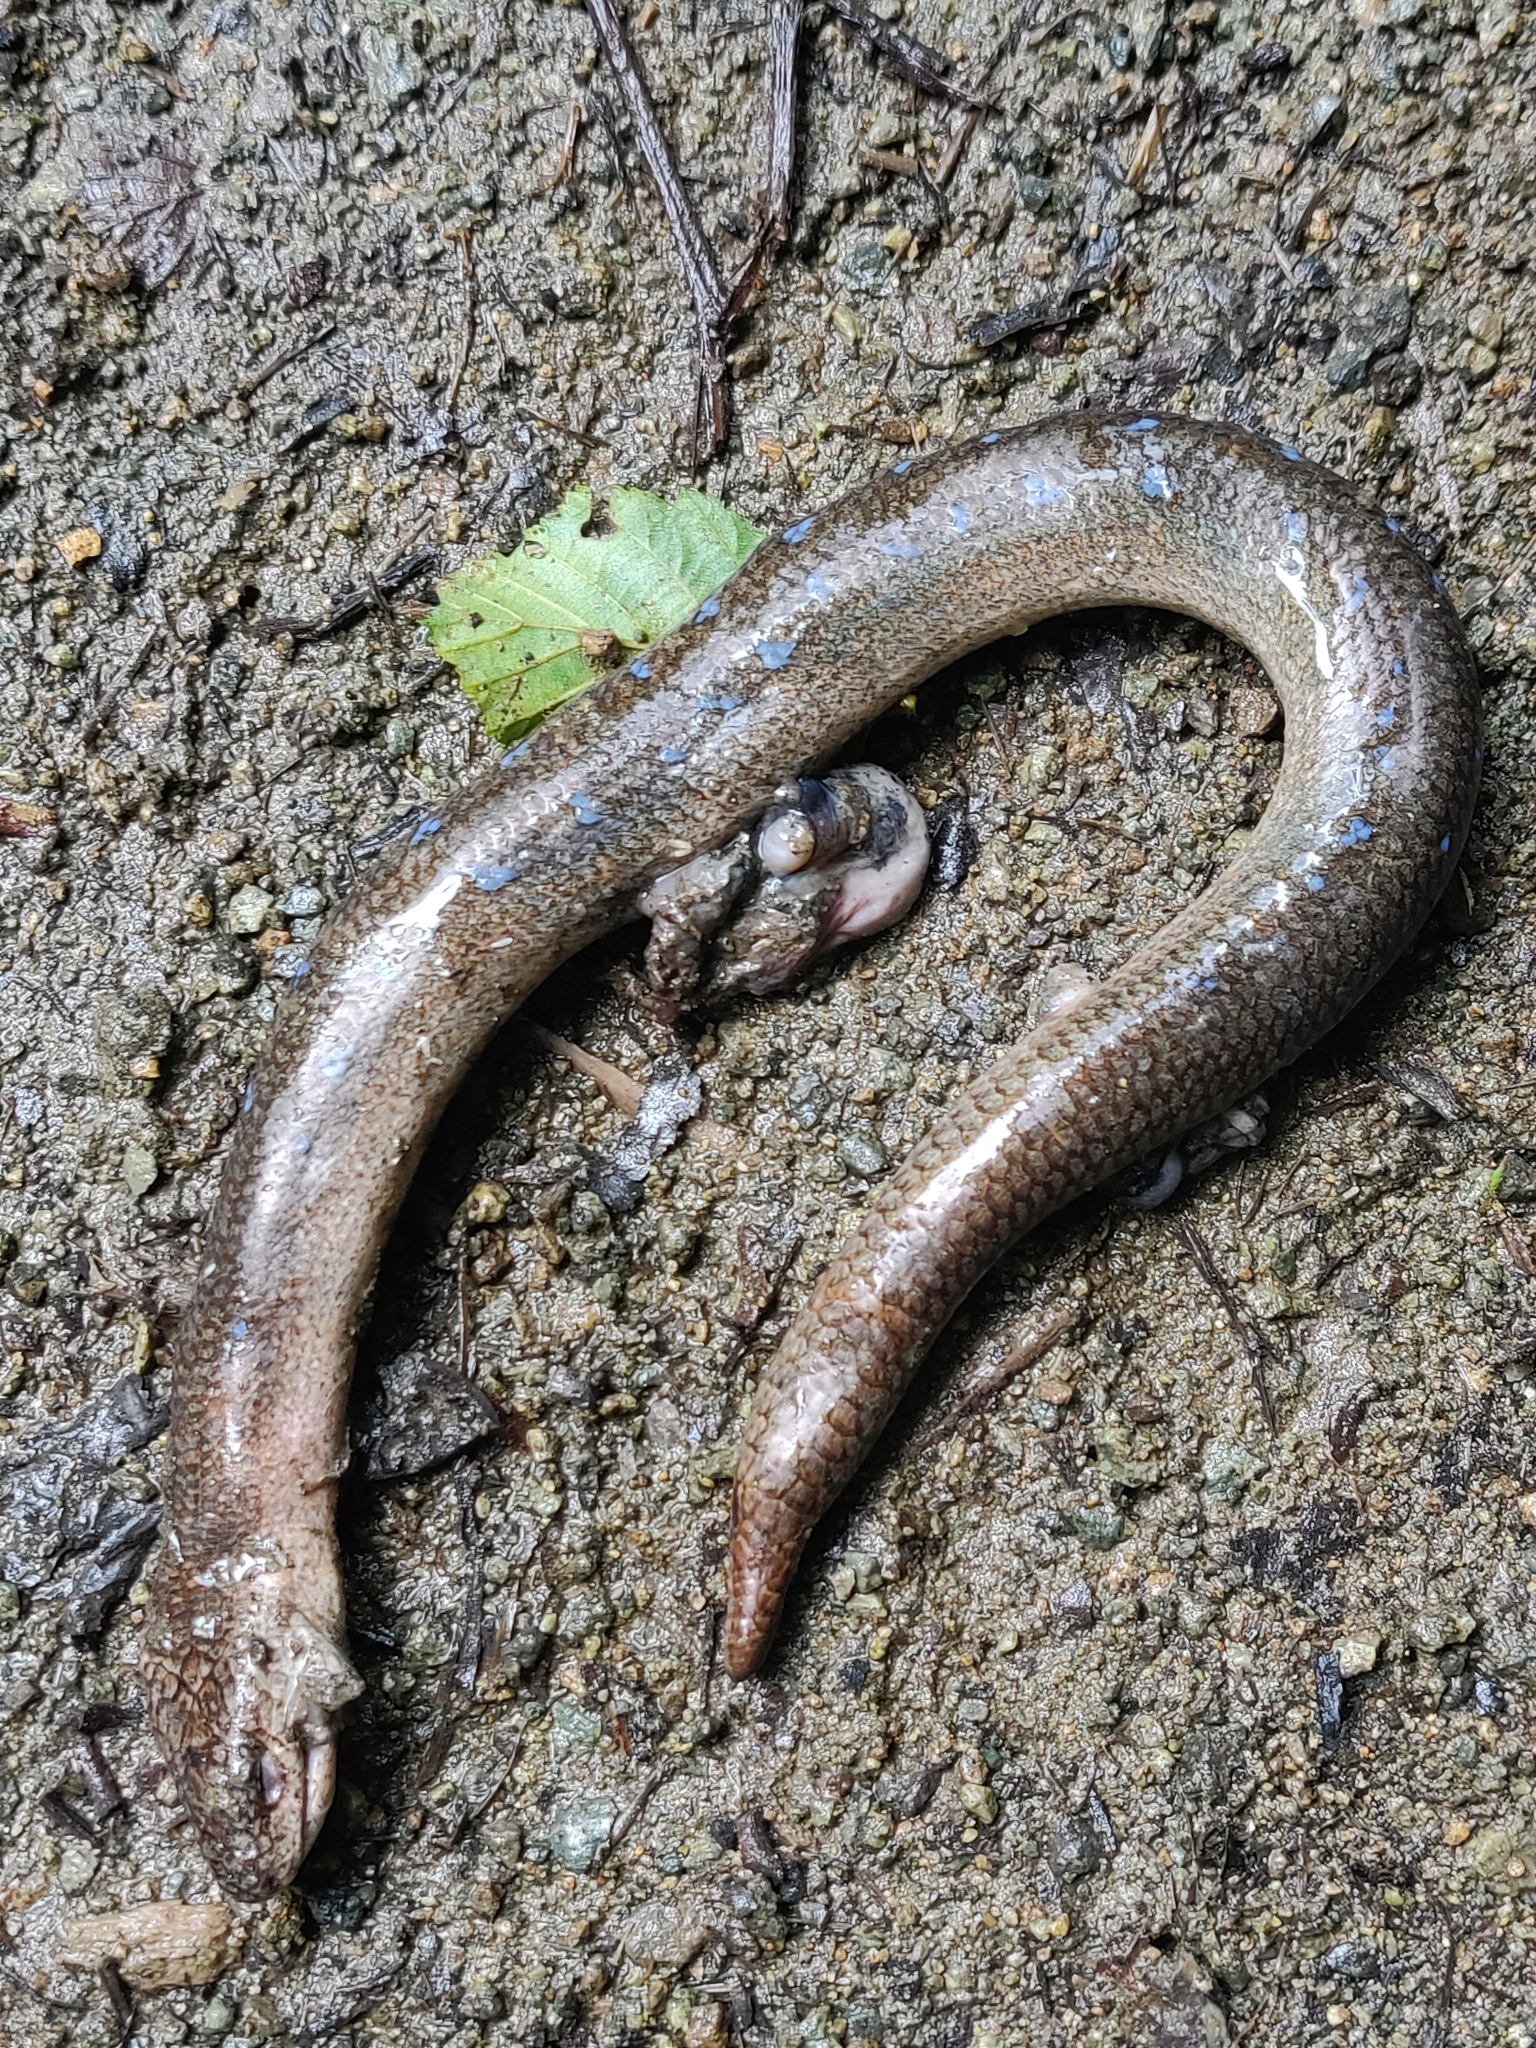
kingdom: Animalia
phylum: Chordata
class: Squamata
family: Anguidae
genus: Anguis
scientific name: Anguis colchica
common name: Slow worm
